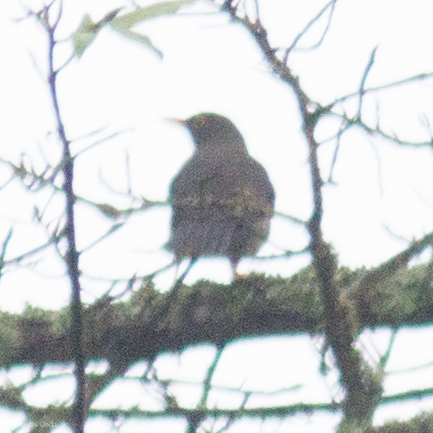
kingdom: Animalia
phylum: Chordata
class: Aves
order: Passeriformes
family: Turdidae
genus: Turdus
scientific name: Turdus fuscater
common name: Great thrush
